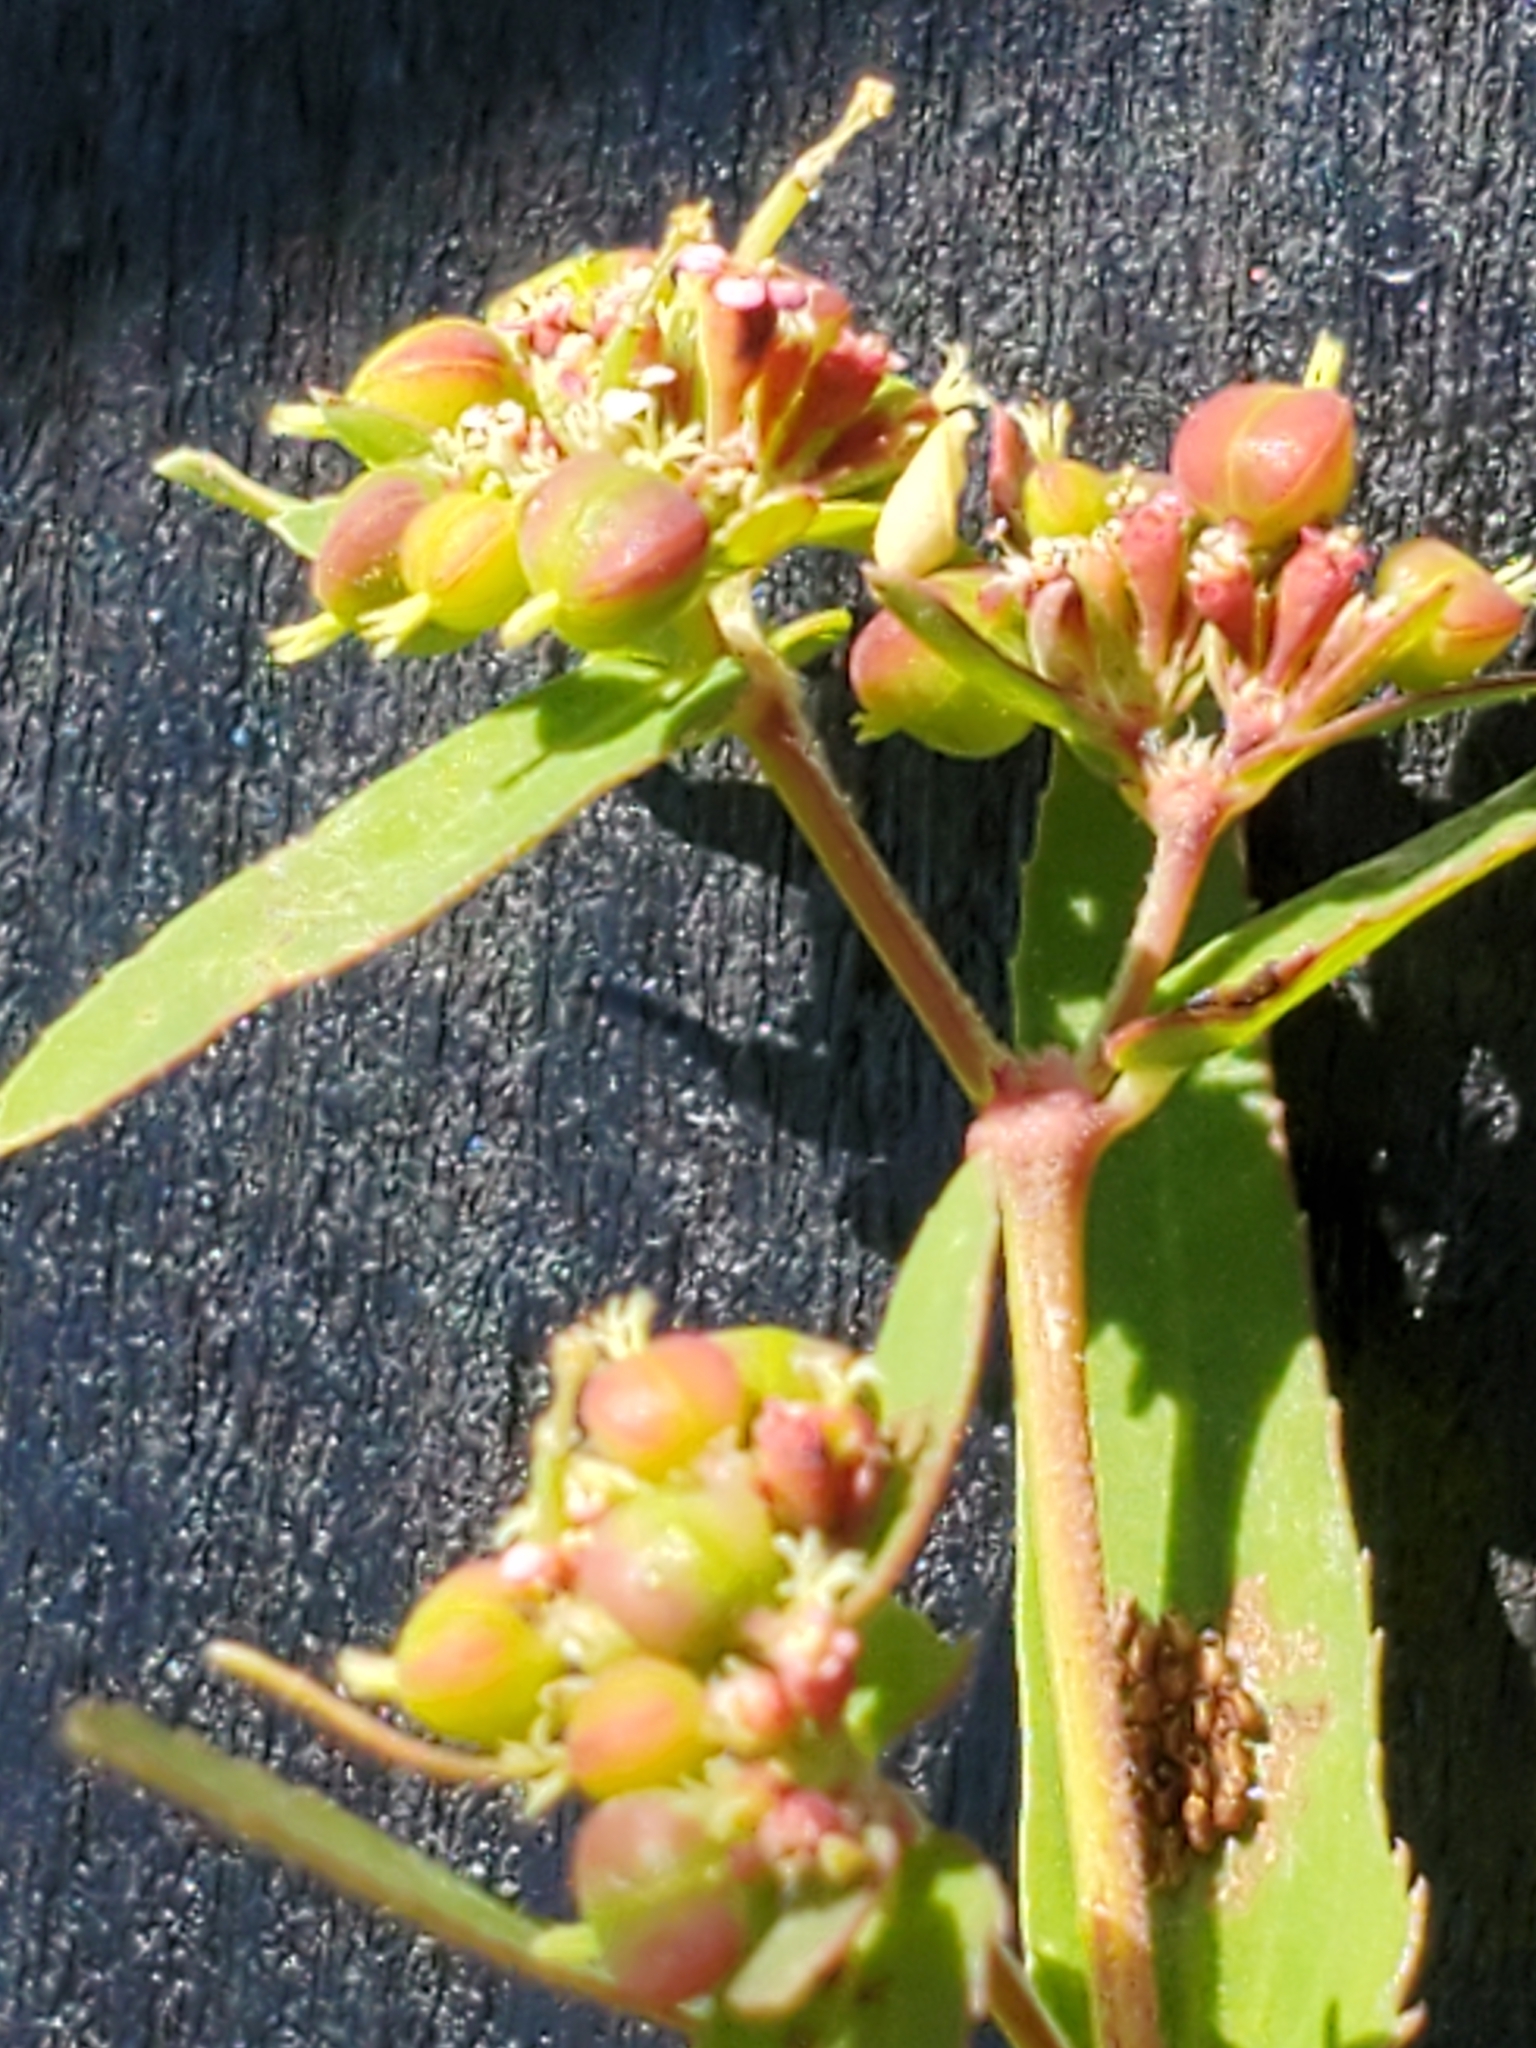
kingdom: Plantae
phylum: Tracheophyta
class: Magnoliopsida
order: Malpighiales
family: Euphorbiaceae
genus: Euphorbia
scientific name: Euphorbia nutans
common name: Eyebane
